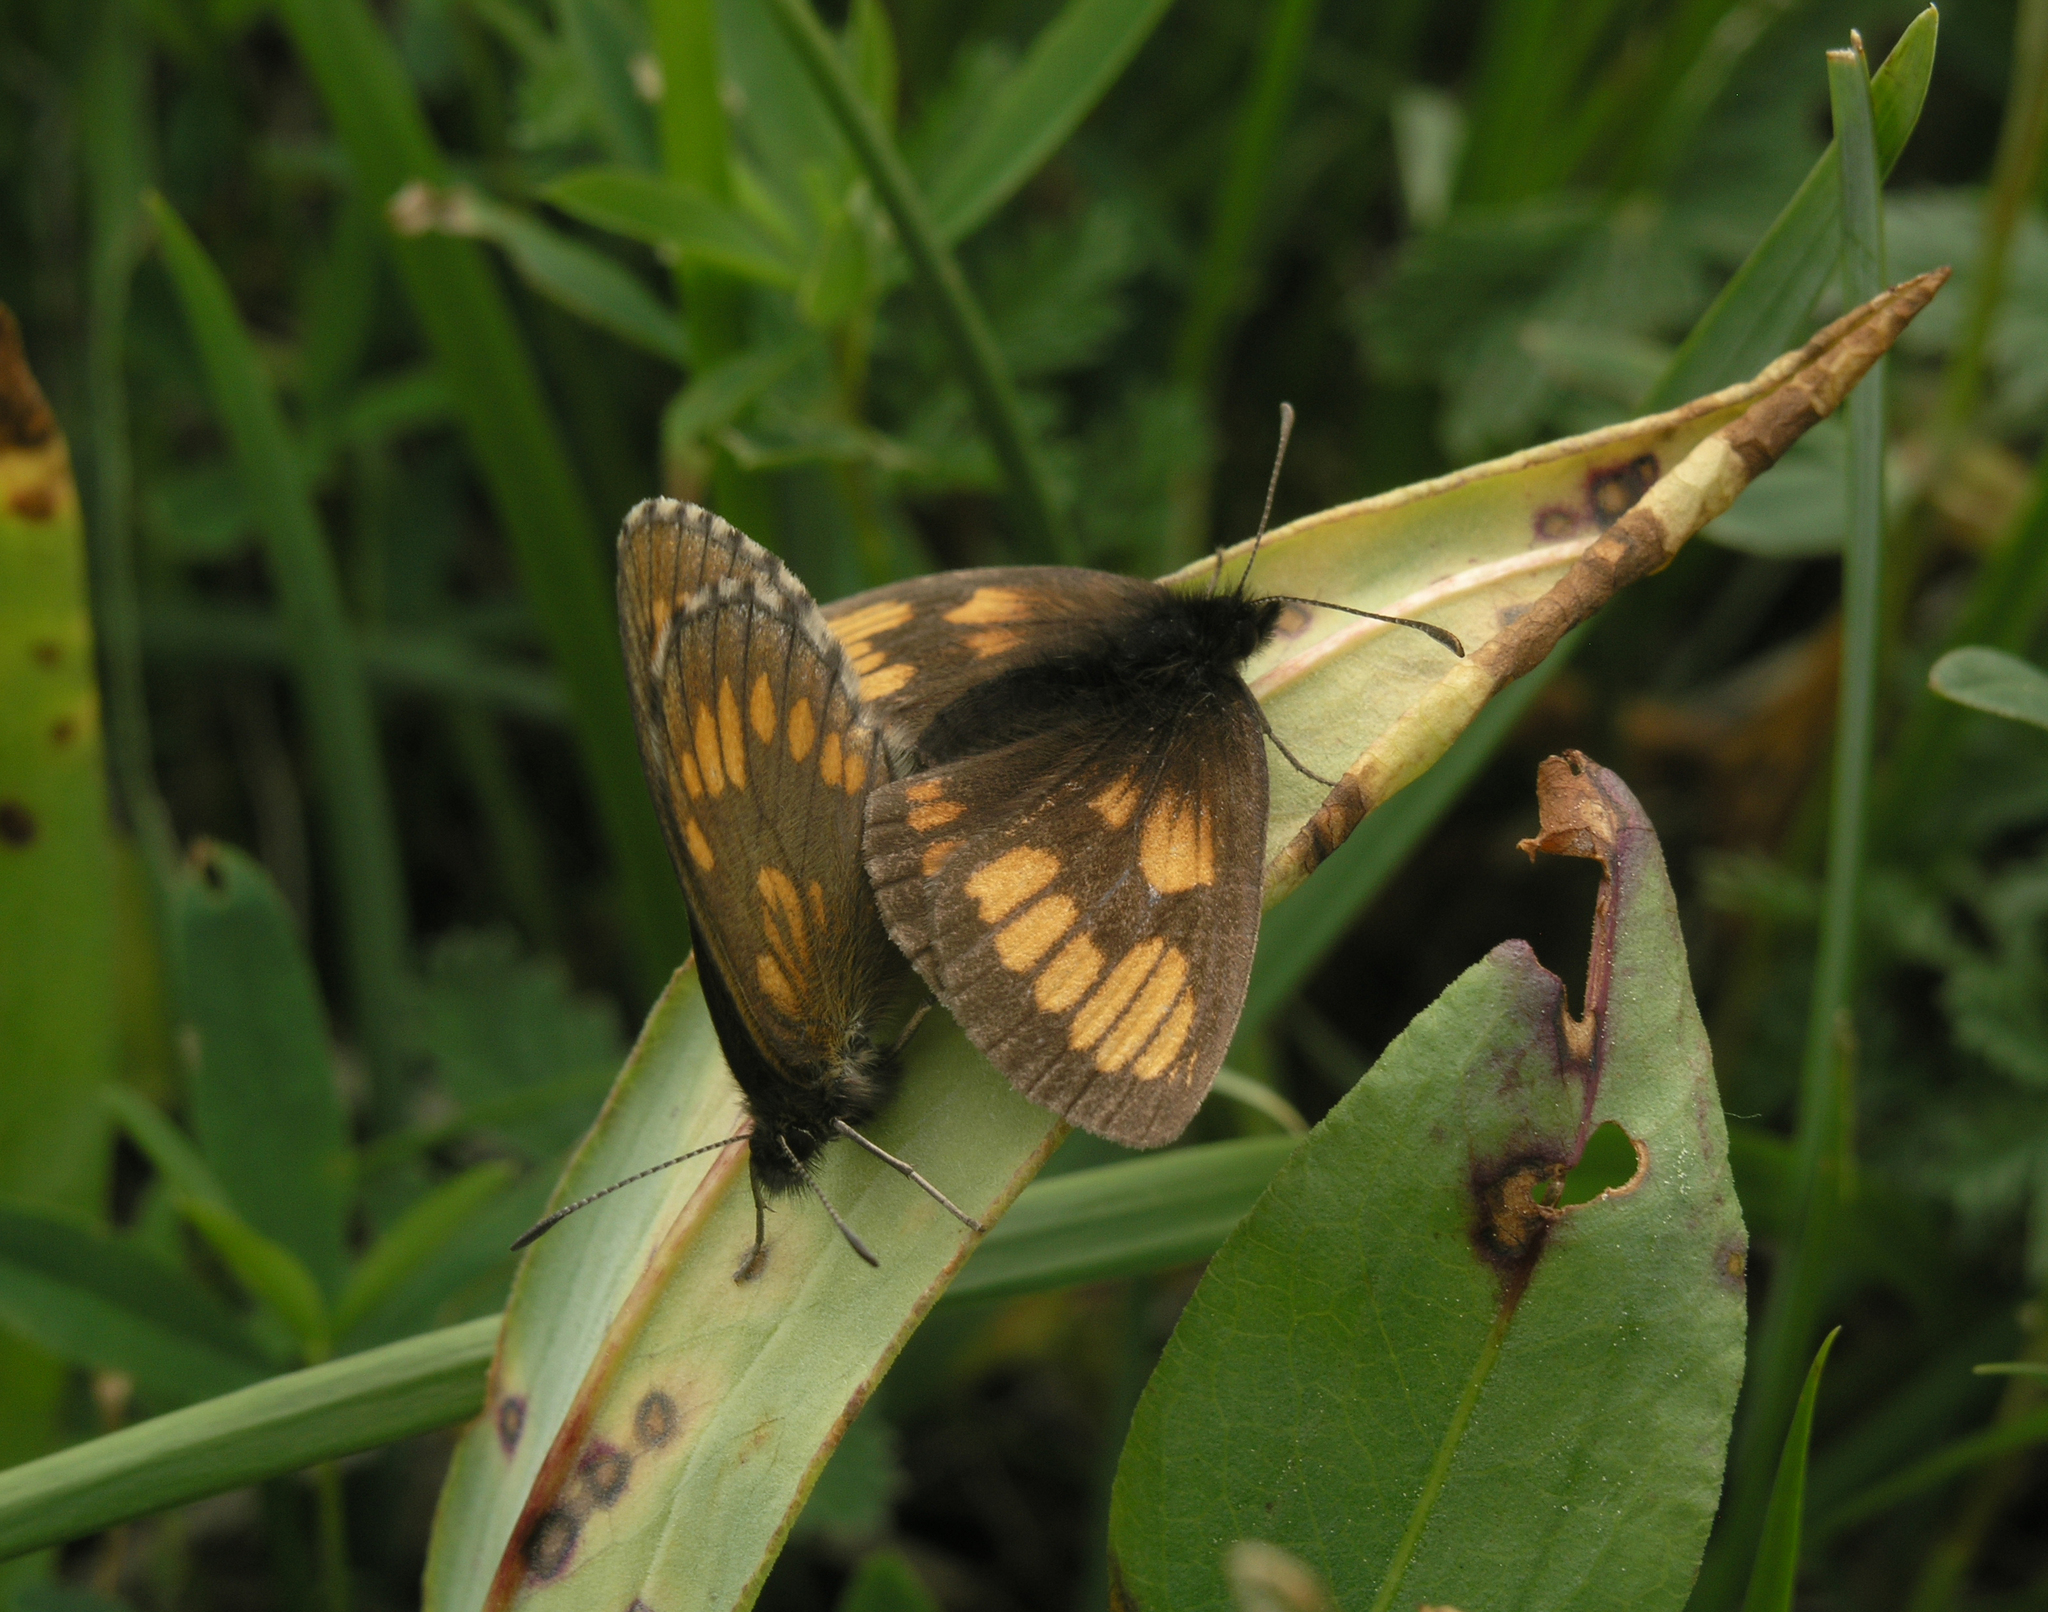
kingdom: Animalia
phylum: Arthropoda
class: Insecta
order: Lepidoptera
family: Nymphalidae
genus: Erebia
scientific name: Erebia maurisius
